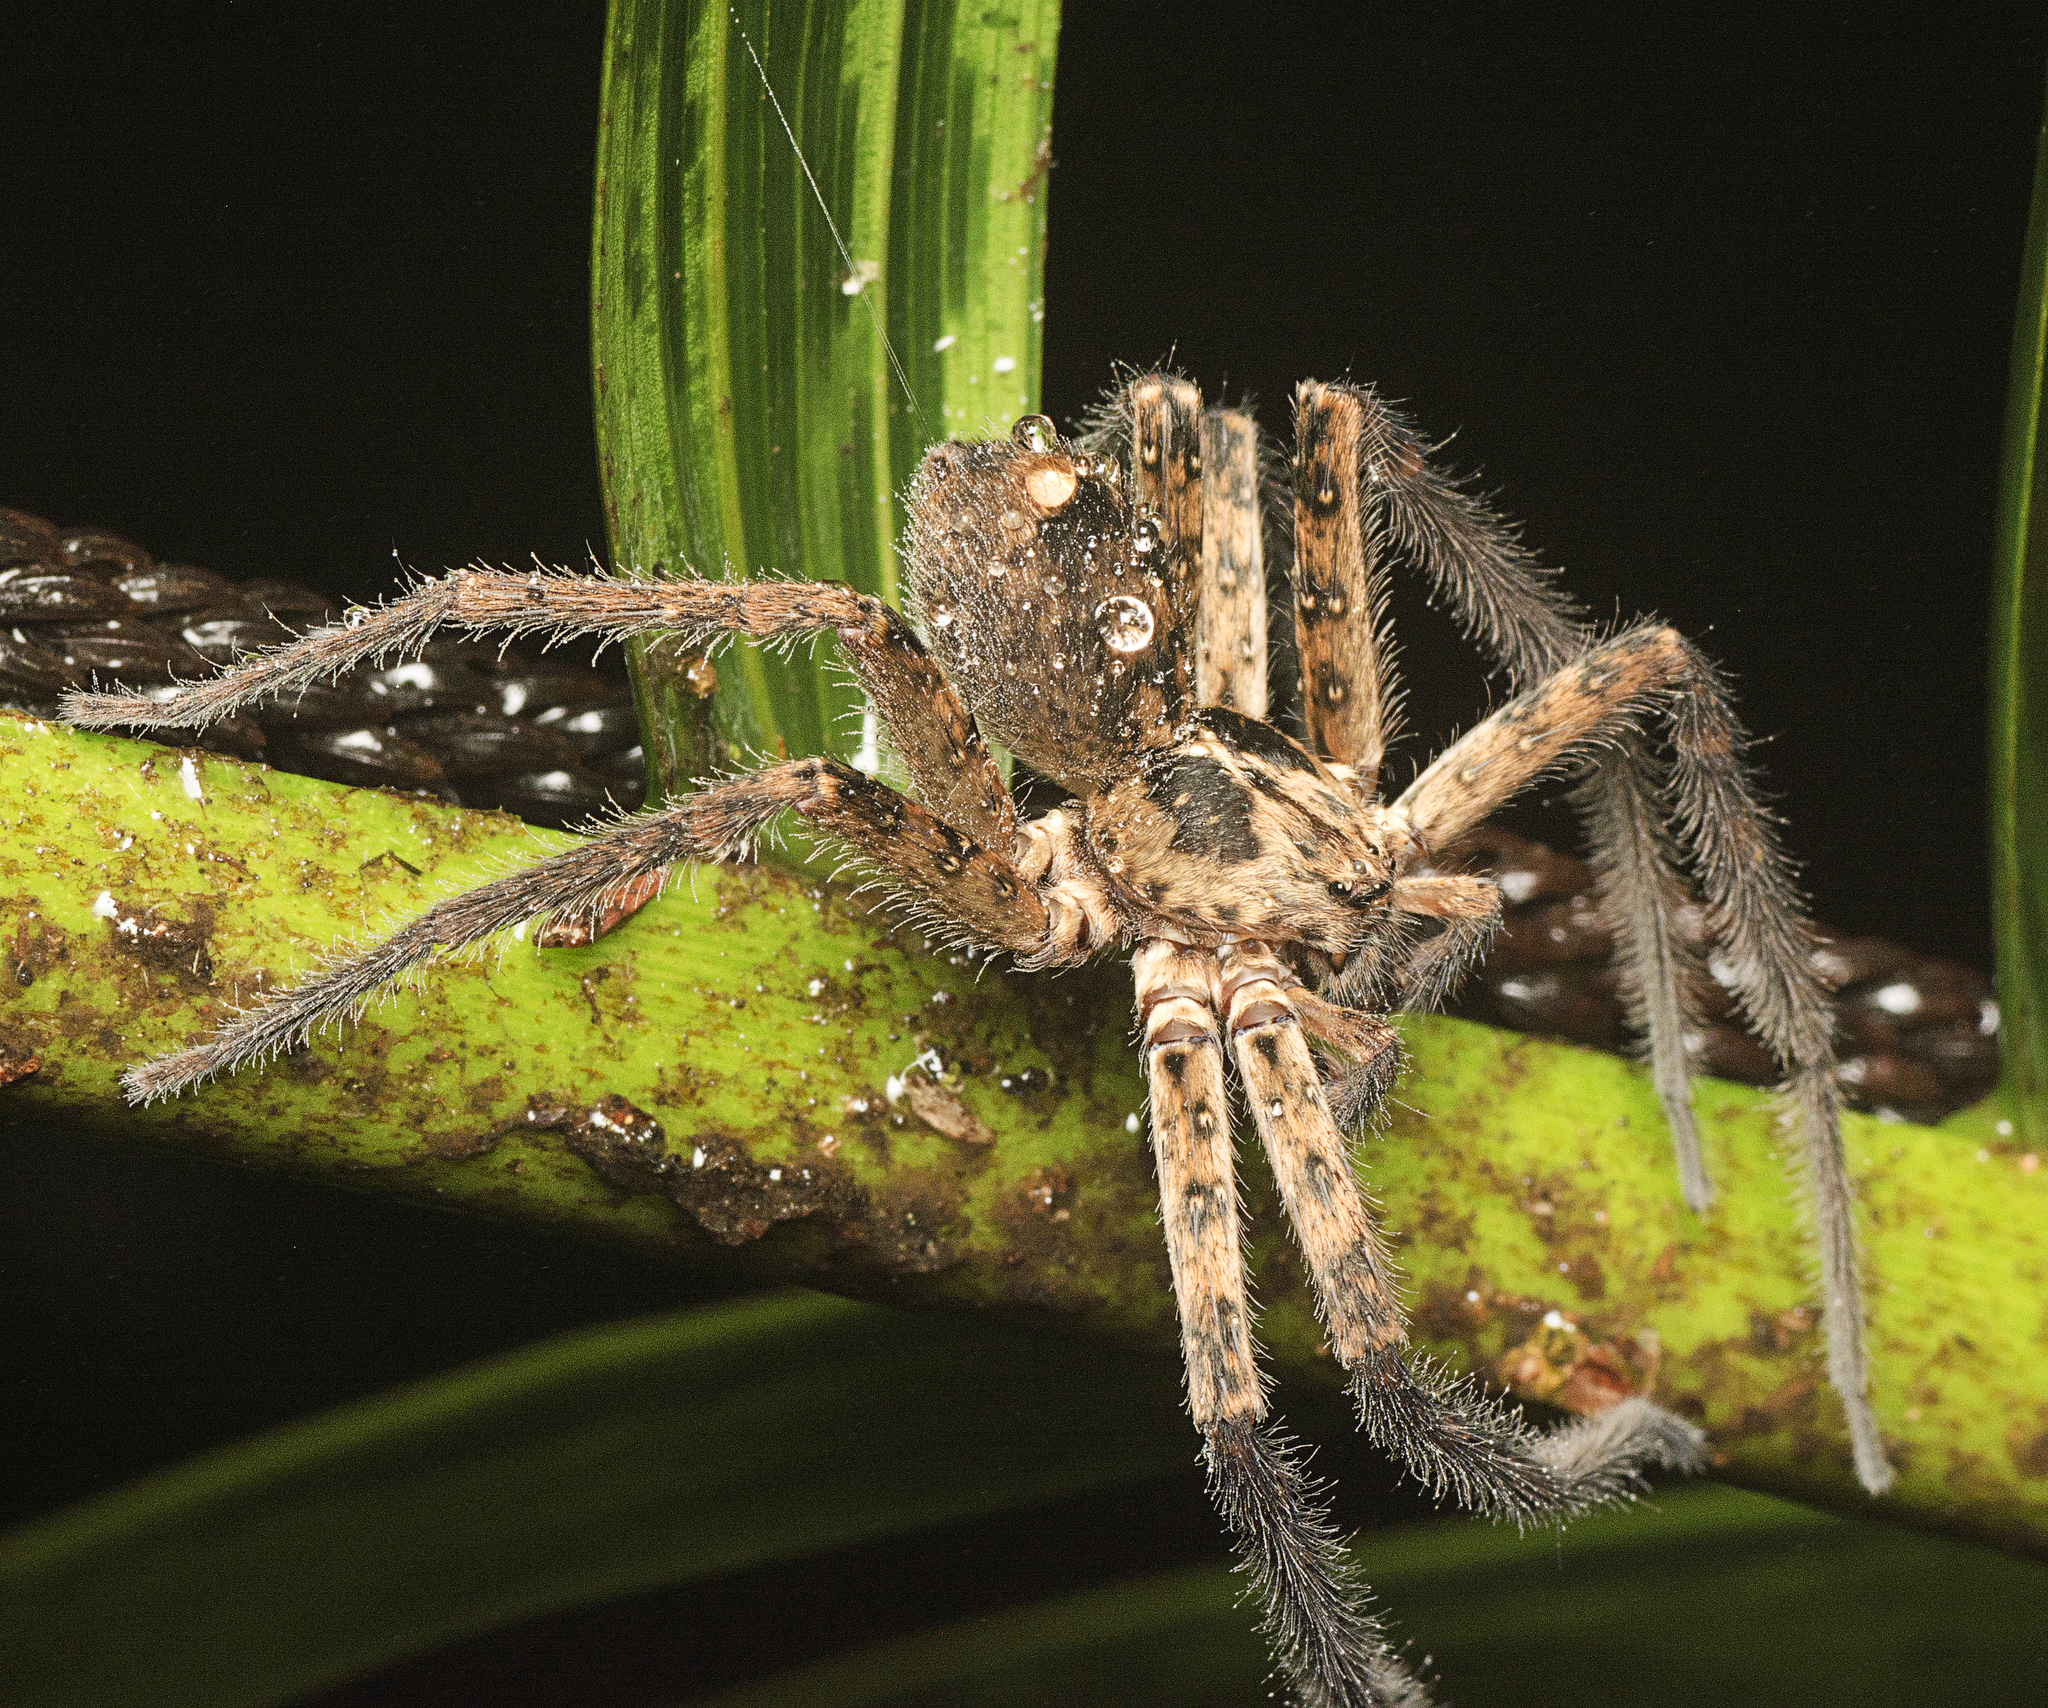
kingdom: Animalia
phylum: Arthropoda
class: Arachnida
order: Araneae
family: Sparassidae
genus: Heteropoda
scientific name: Heteropoda hillerae
